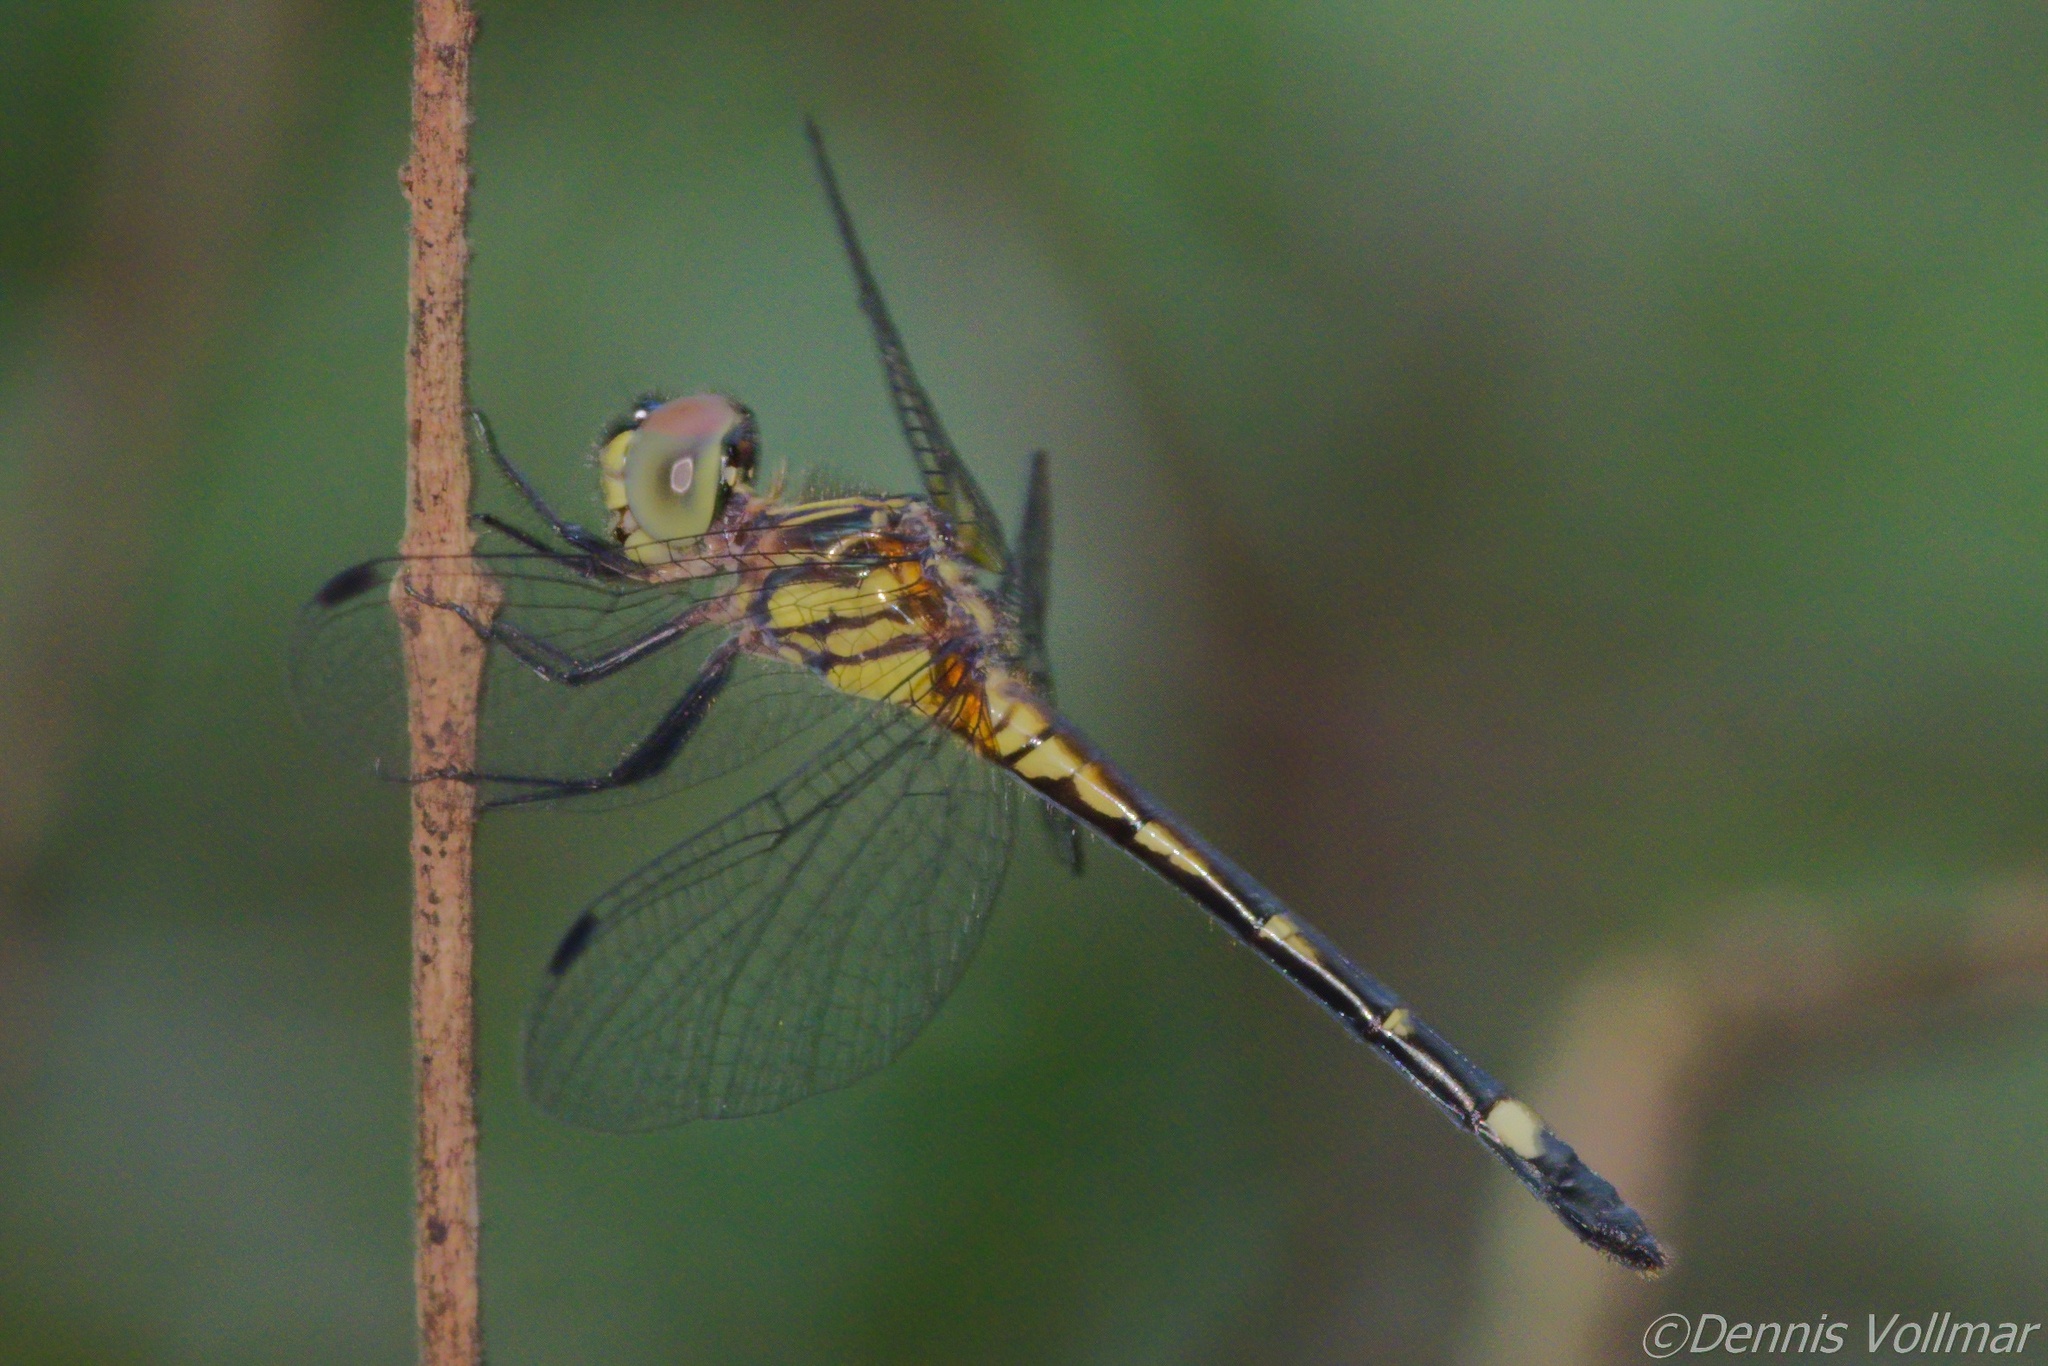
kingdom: Animalia
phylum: Arthropoda
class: Insecta
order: Odonata
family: Libellulidae
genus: Micrathyria
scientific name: Micrathyria didyma
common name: Three-striped dasher
